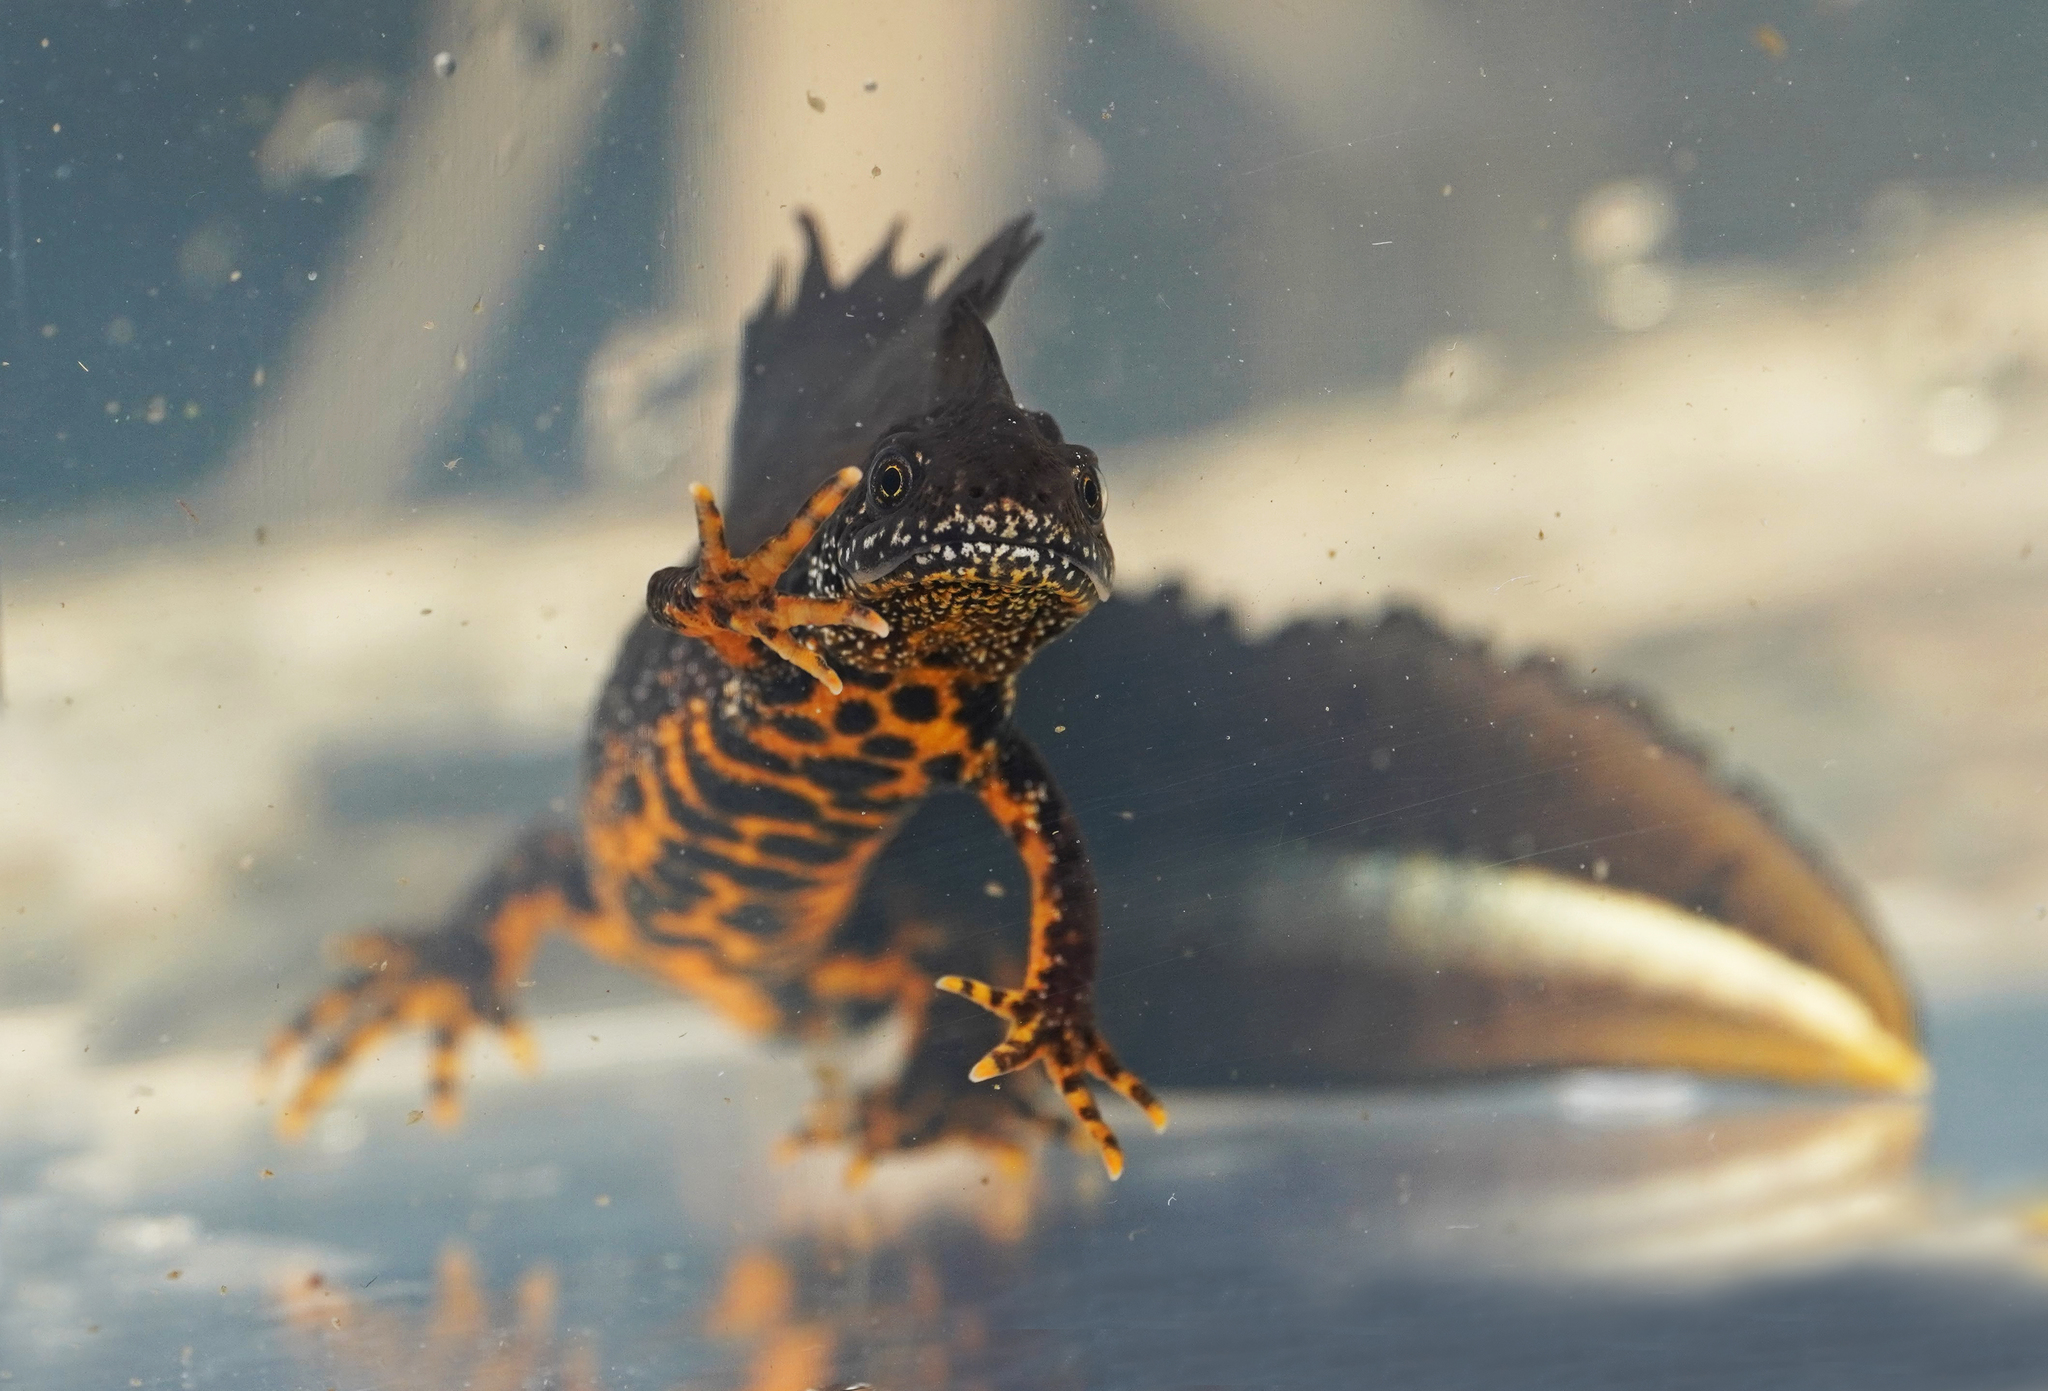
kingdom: Animalia
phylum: Chordata
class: Amphibia
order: Caudata
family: Salamandridae
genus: Triturus
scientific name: Triturus cristatus
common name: Crested newt
